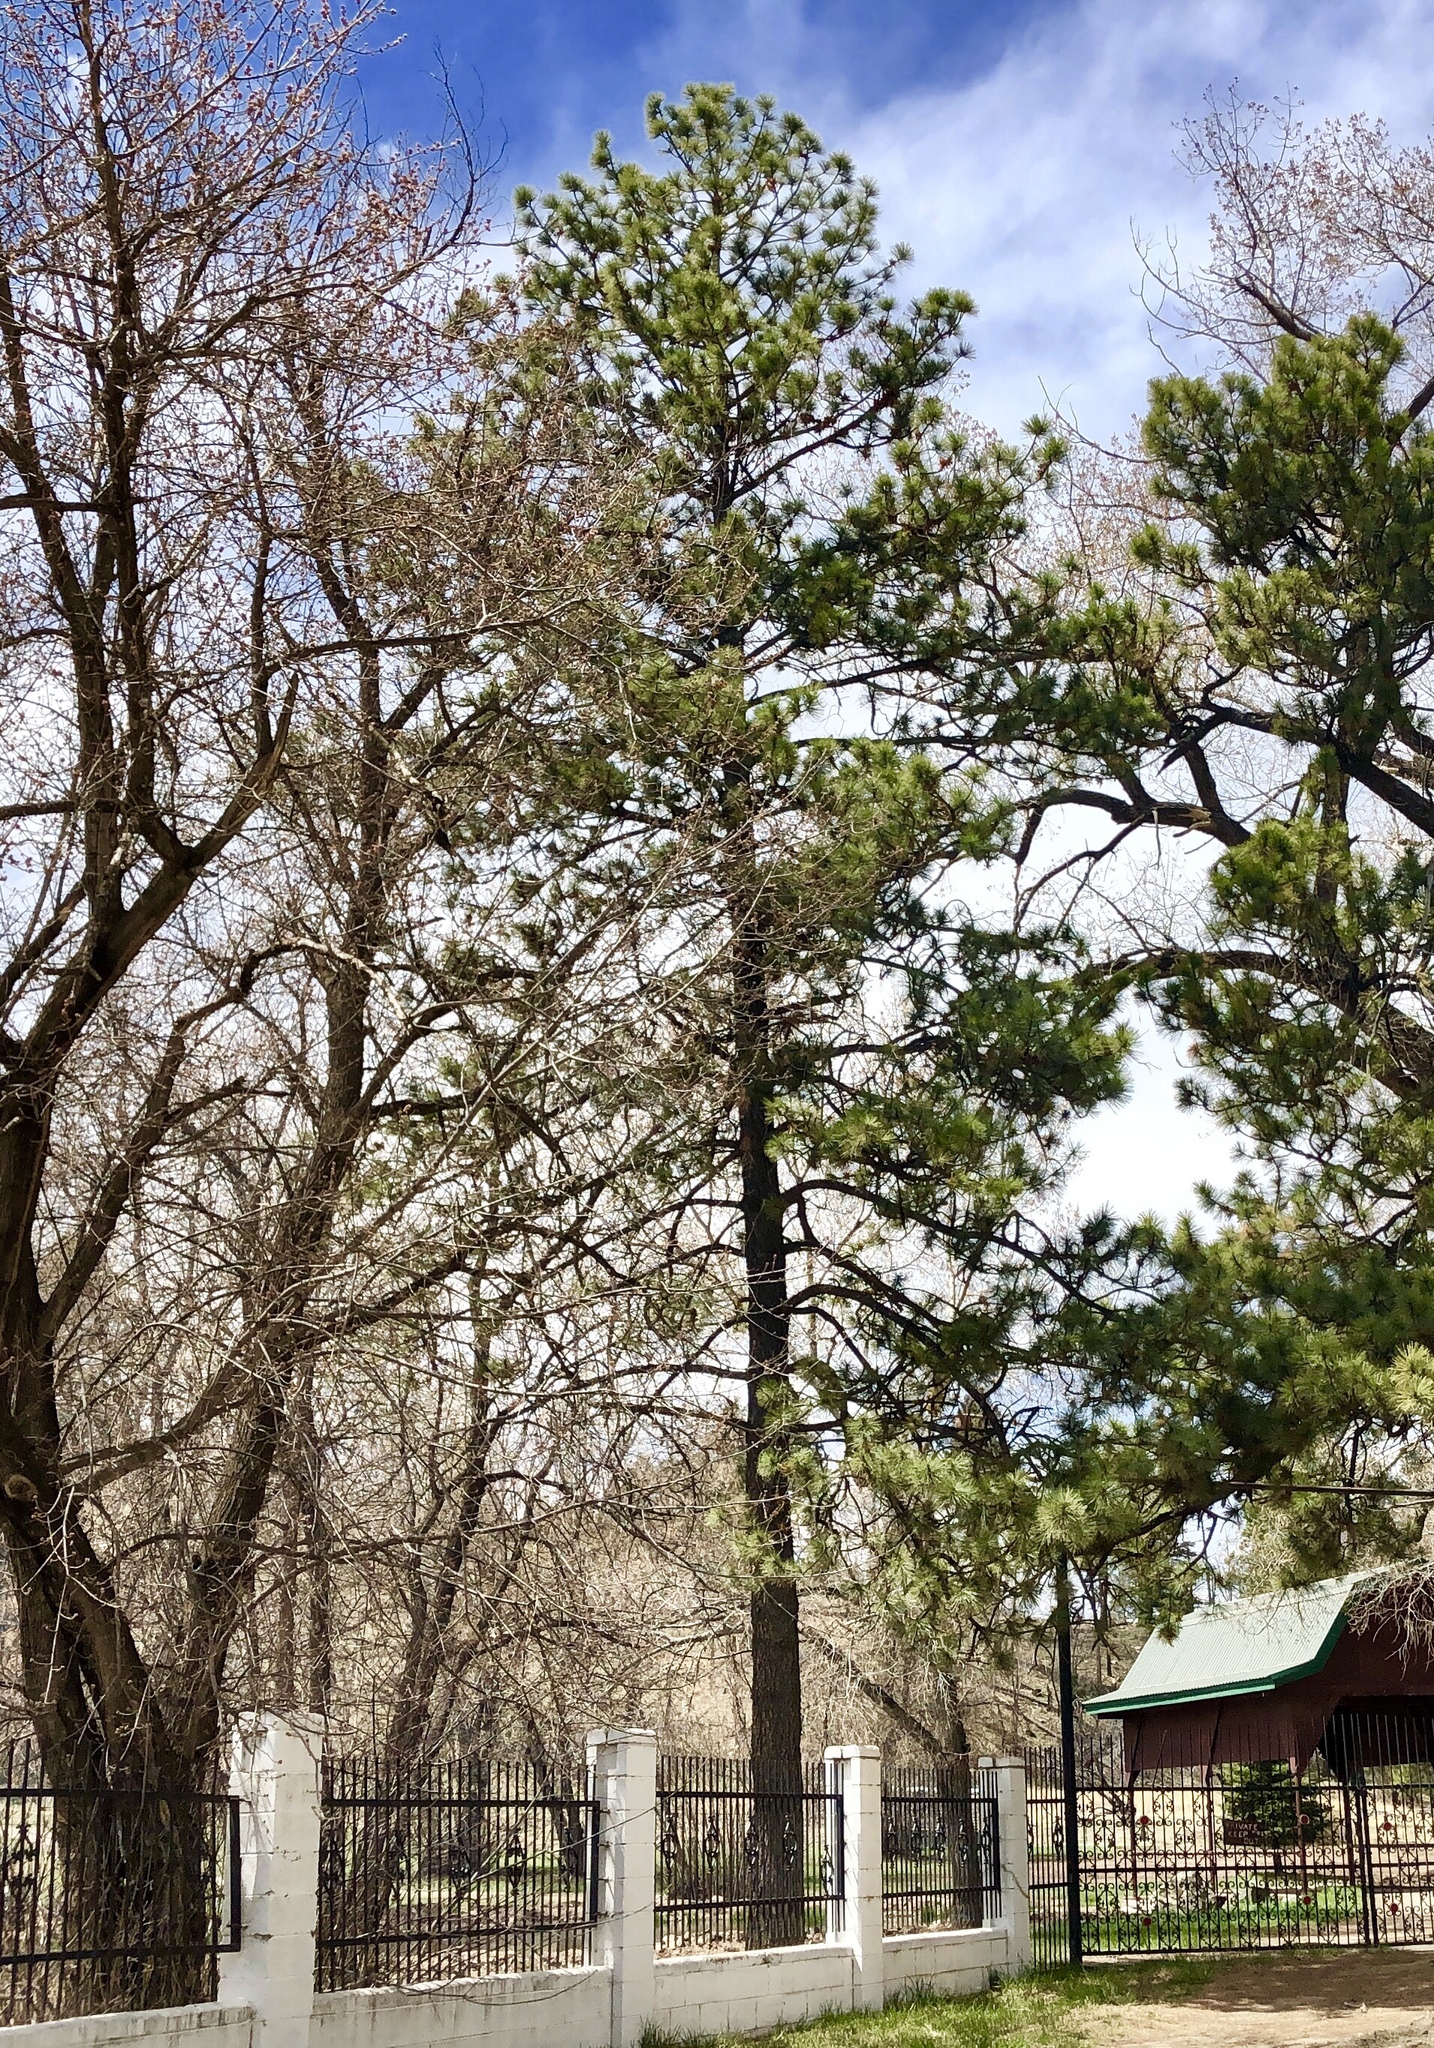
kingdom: Plantae
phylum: Tracheophyta
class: Pinopsida
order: Pinales
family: Pinaceae
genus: Pinus
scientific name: Pinus ponderosa
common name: Western yellow-pine
